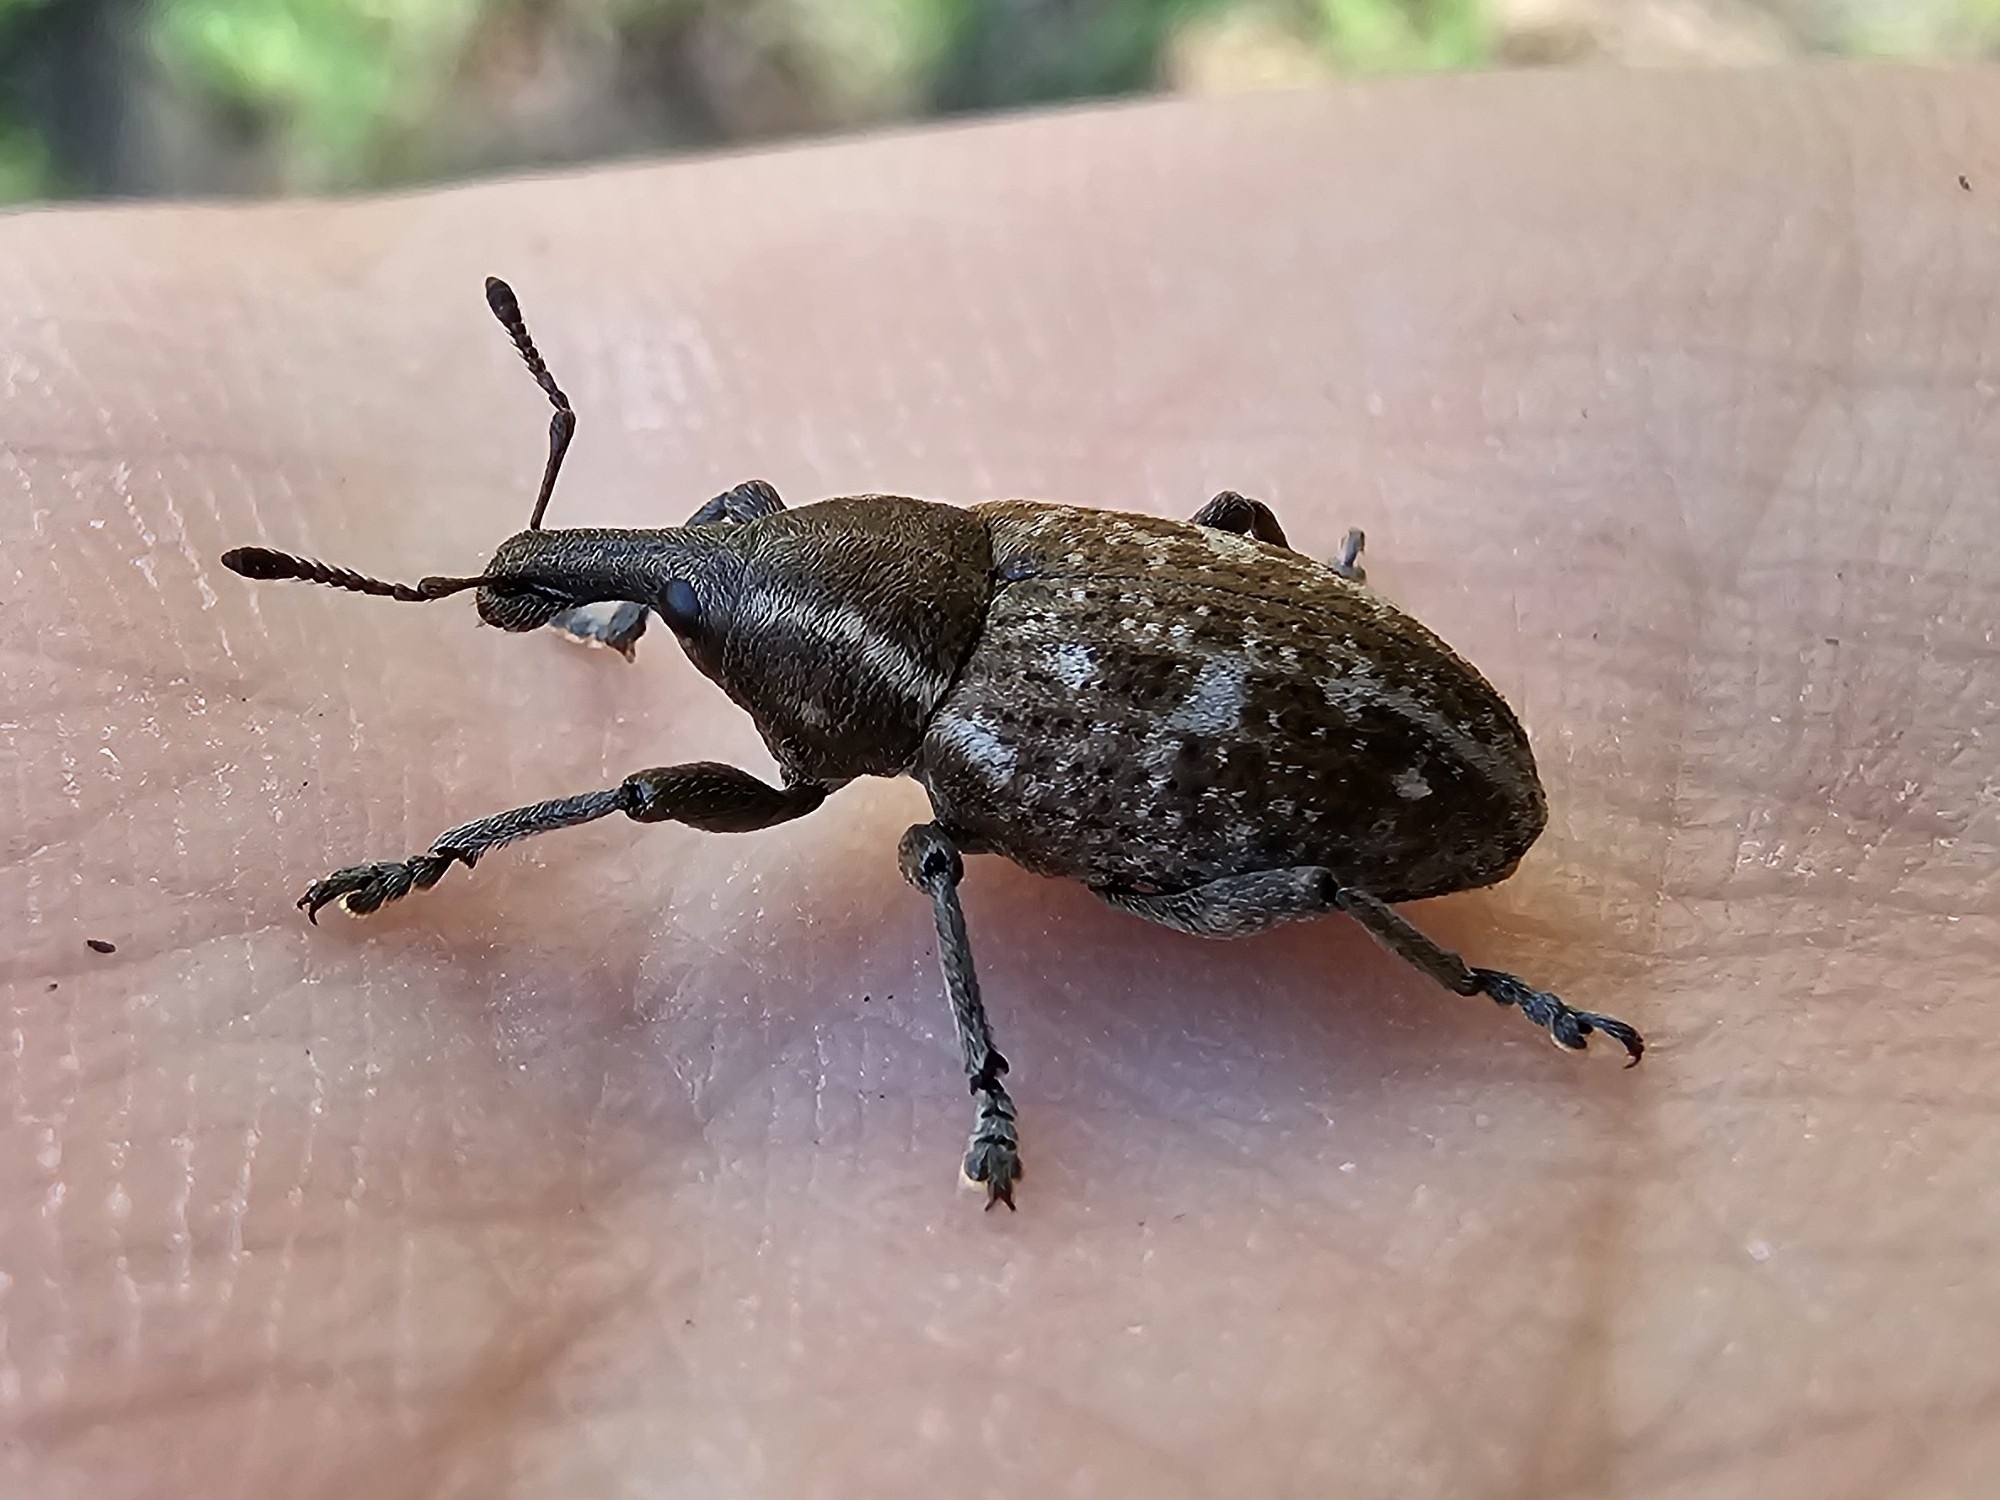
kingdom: Animalia
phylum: Arthropoda
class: Insecta
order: Coleoptera
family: Curculionidae
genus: Lepyrus
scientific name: Lepyrus capucinus
